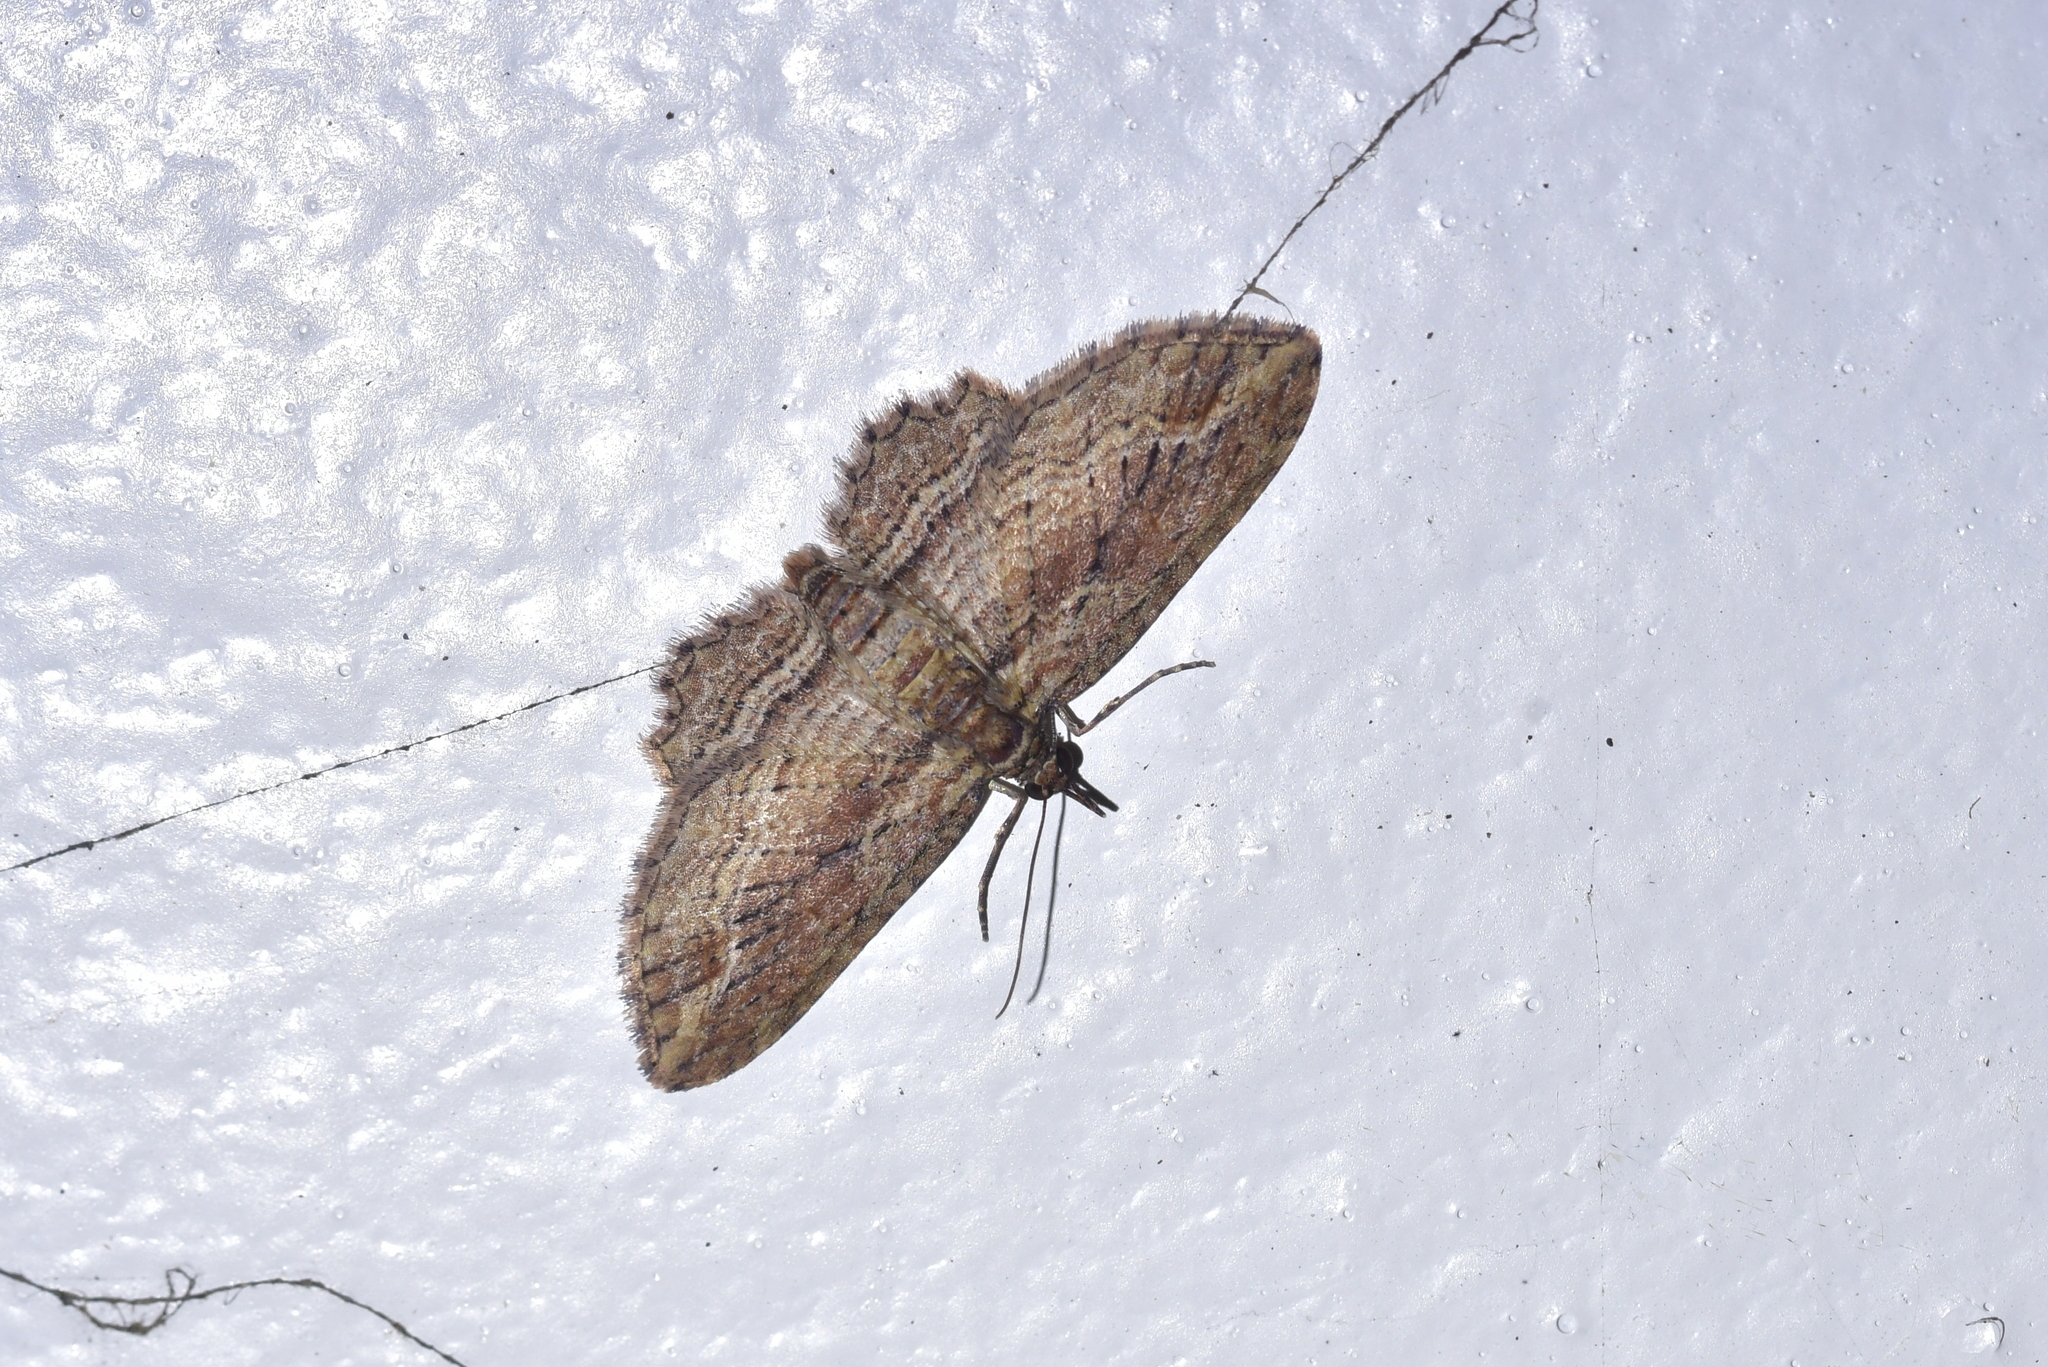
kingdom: Animalia
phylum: Arthropoda
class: Insecta
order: Lepidoptera
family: Geometridae
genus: Chloroclystis
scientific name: Chloroclystis filata
